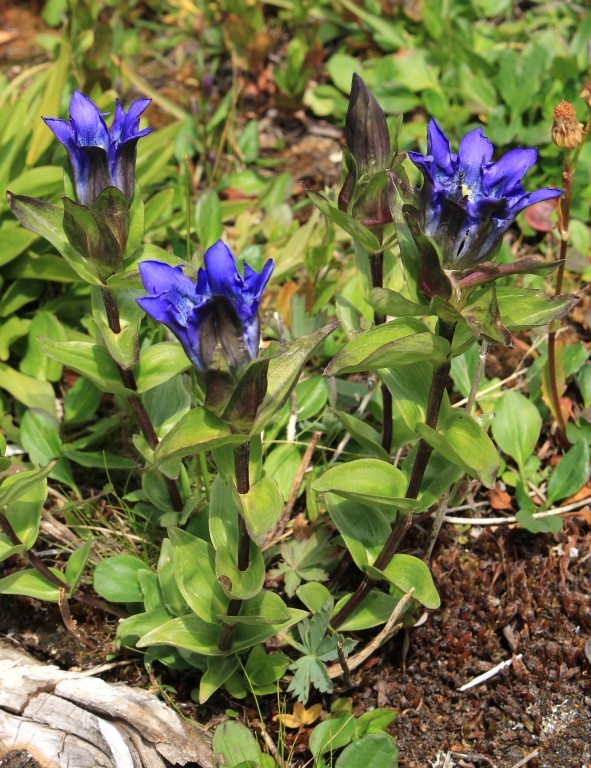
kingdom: Plantae
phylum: Tracheophyta
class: Magnoliopsida
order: Gentianales
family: Gentianaceae
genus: Gentiana
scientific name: Gentiana parryi
